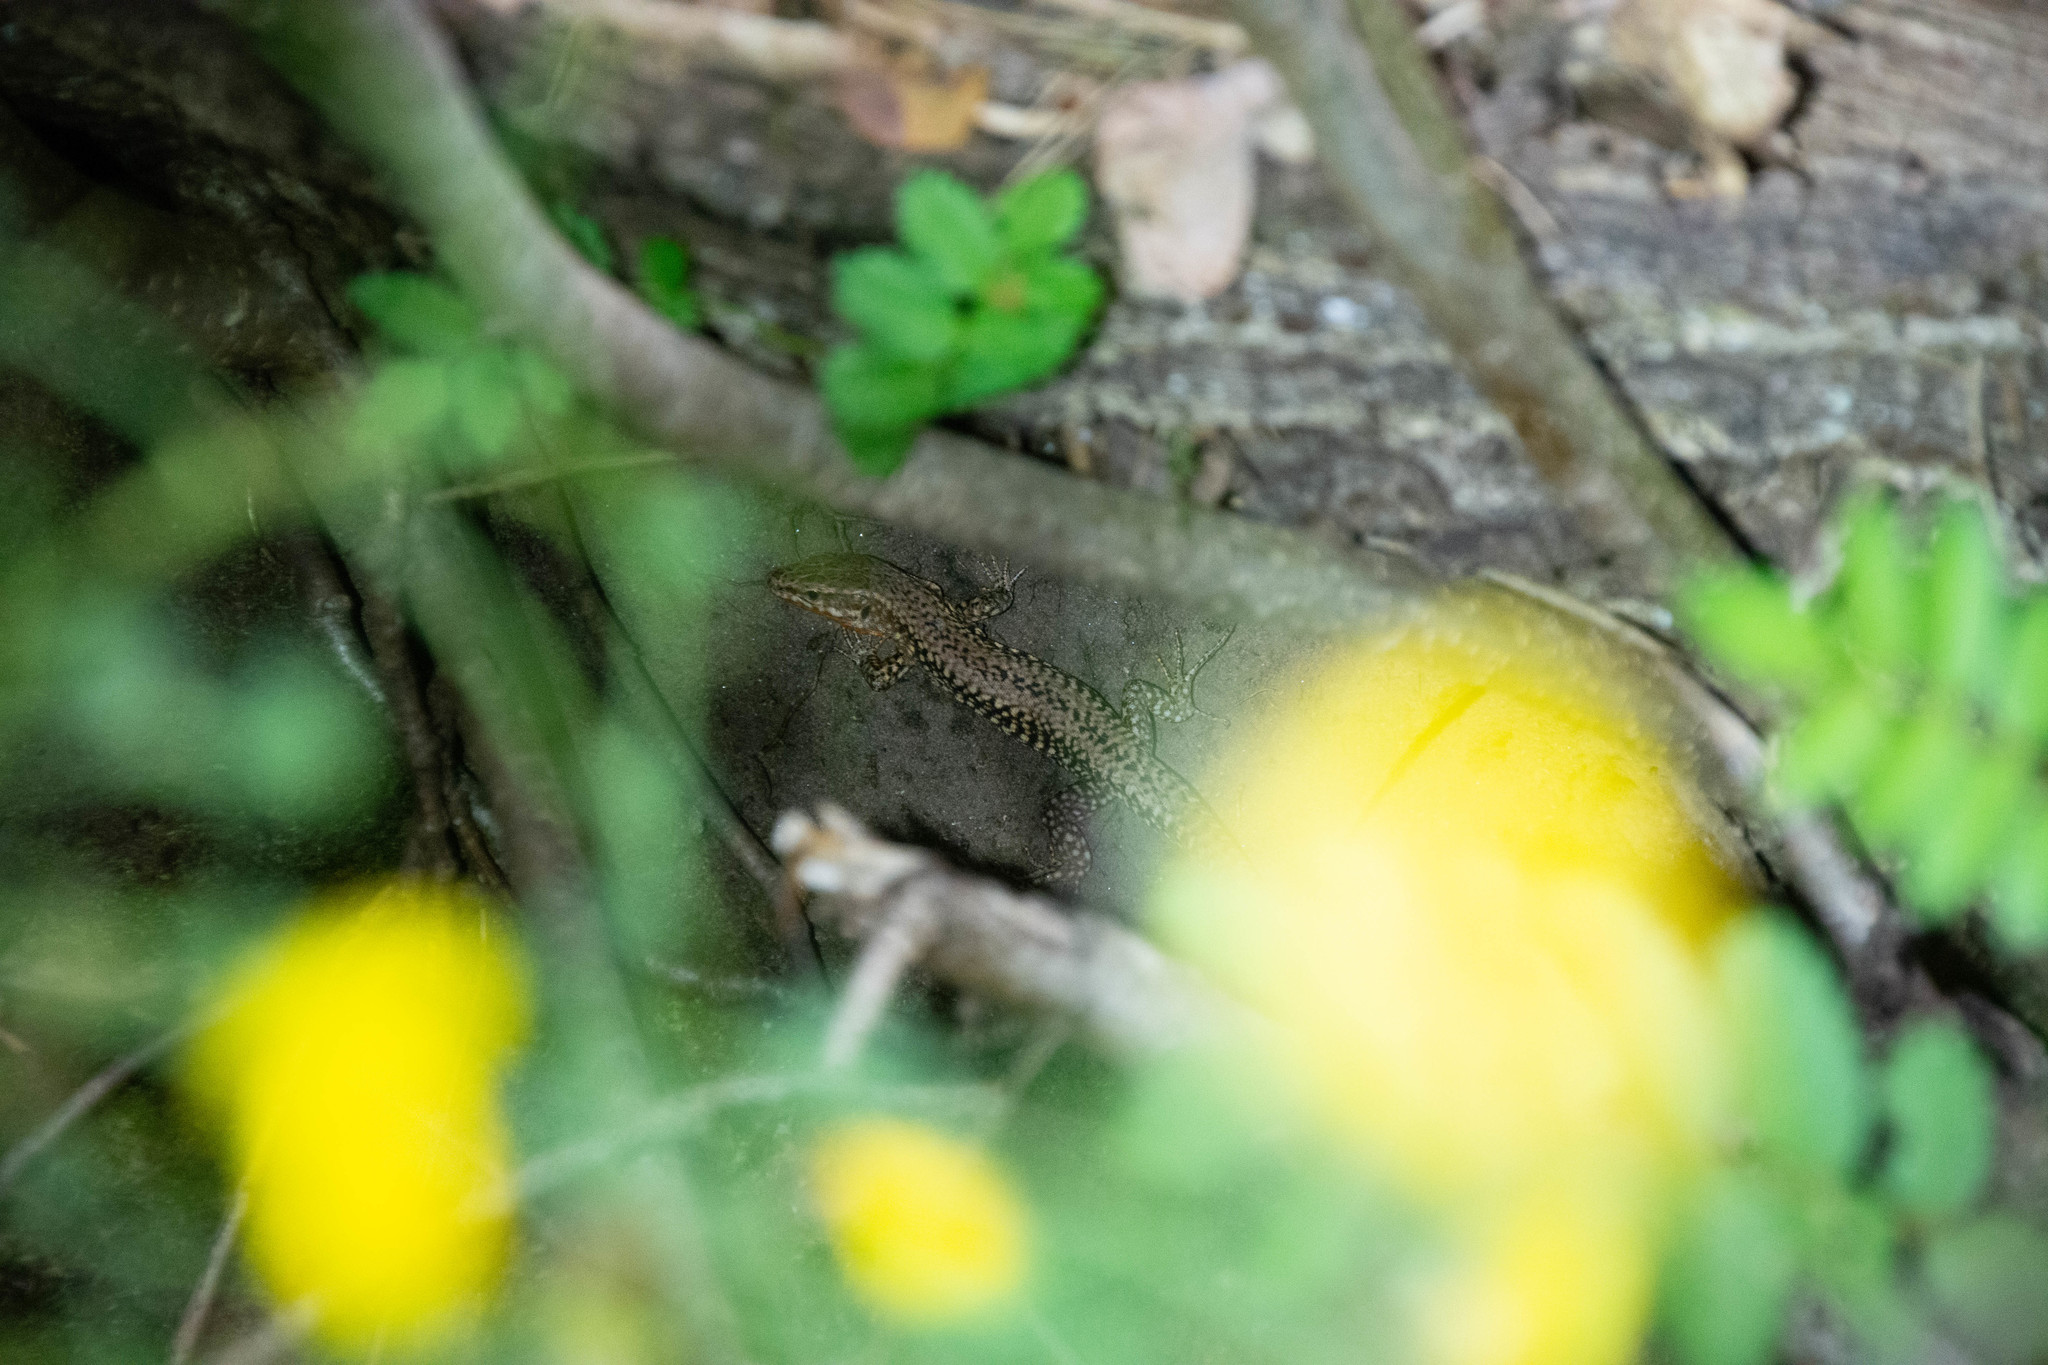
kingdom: Animalia
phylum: Chordata
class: Squamata
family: Lacertidae
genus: Podarcis
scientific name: Podarcis muralis
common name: Common wall lizard
